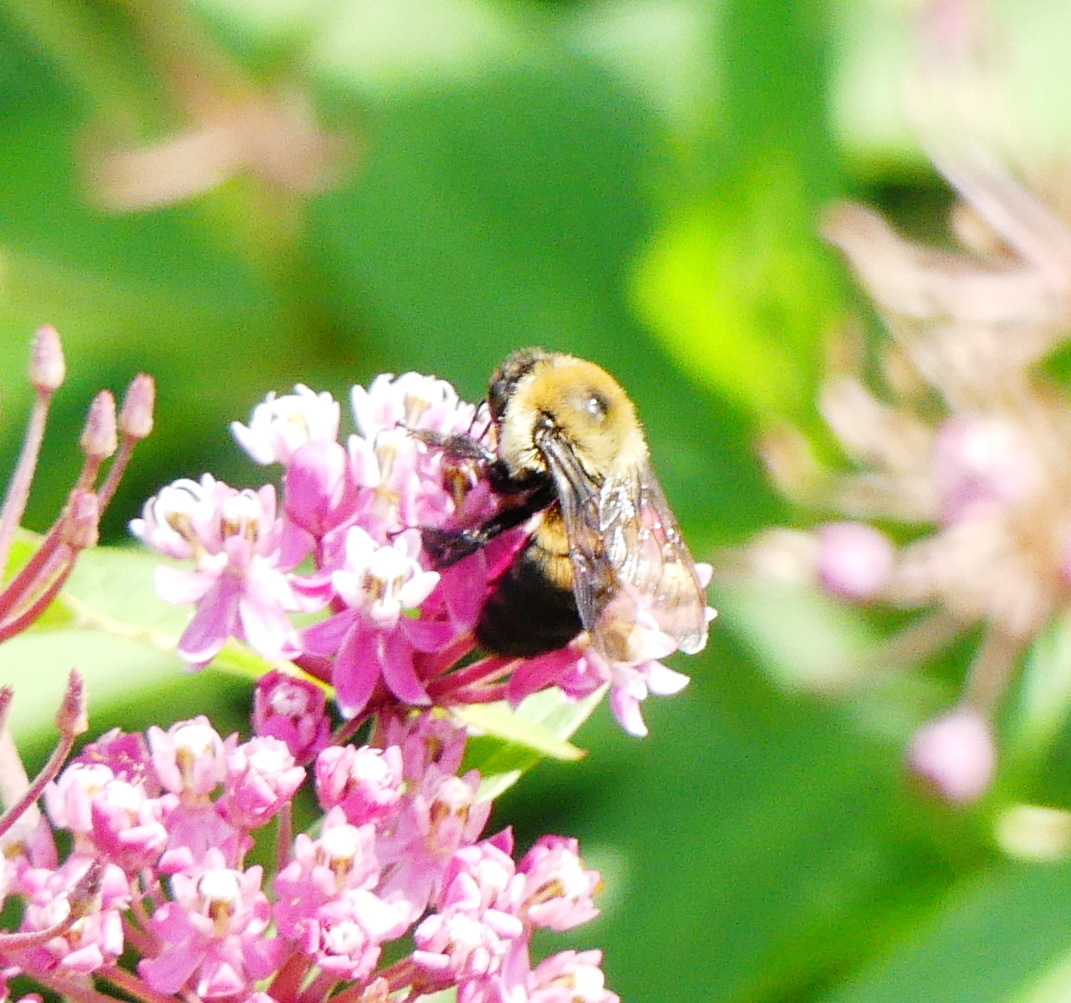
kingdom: Animalia
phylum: Arthropoda
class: Insecta
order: Hymenoptera
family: Apidae
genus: Bombus
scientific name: Bombus griseocollis
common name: Brown-belted bumble bee
